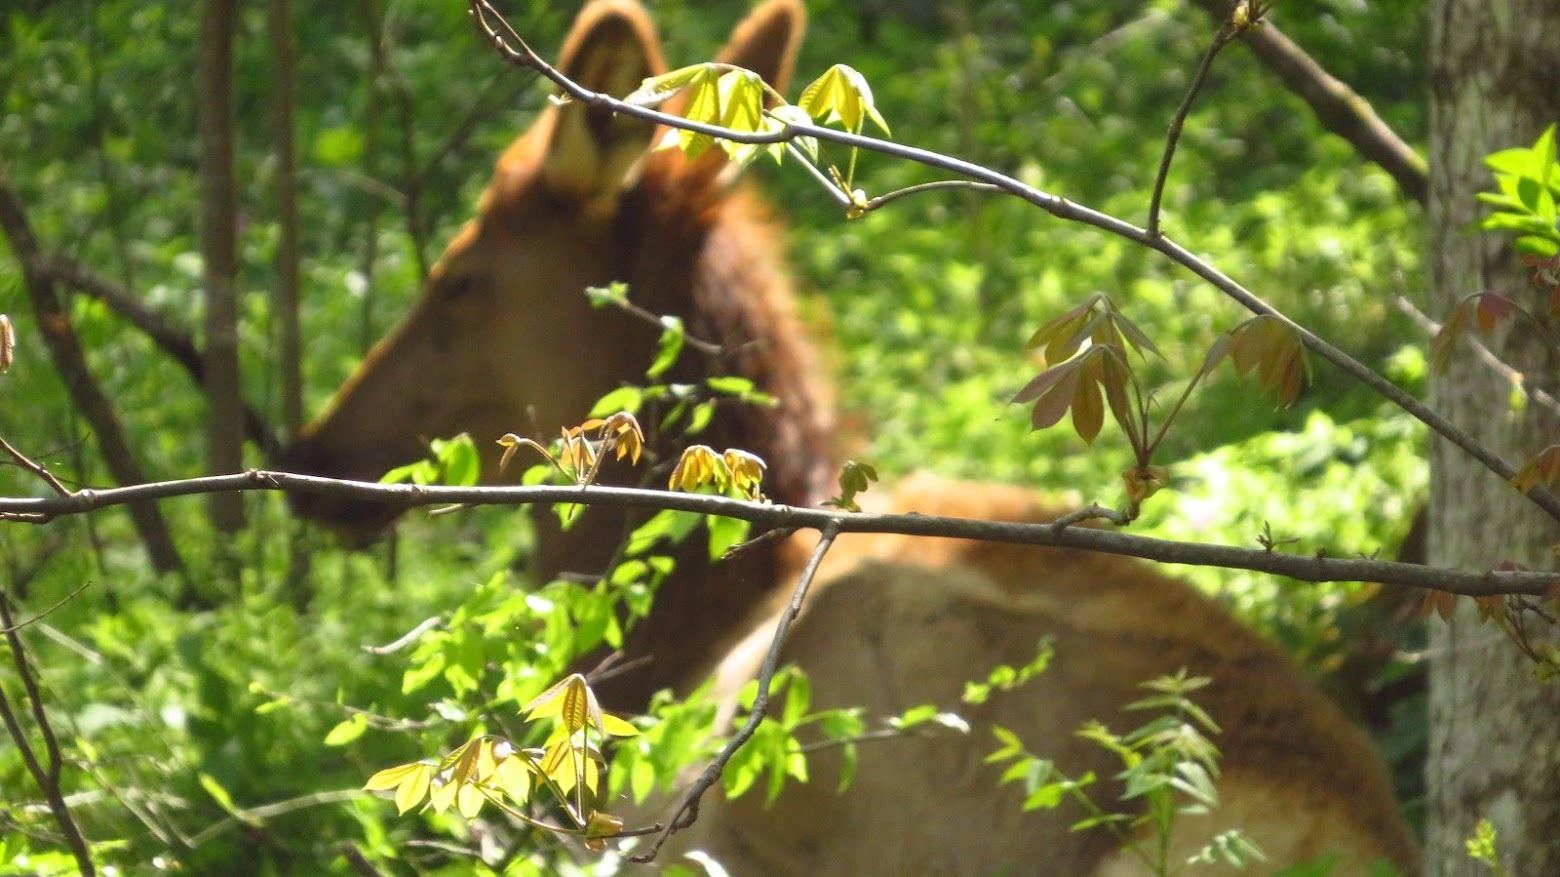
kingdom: Plantae
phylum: Tracheophyta
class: Magnoliopsida
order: Sapindales
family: Sapindaceae
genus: Aesculus
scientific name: Aesculus flava
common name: Yellow buckeye
